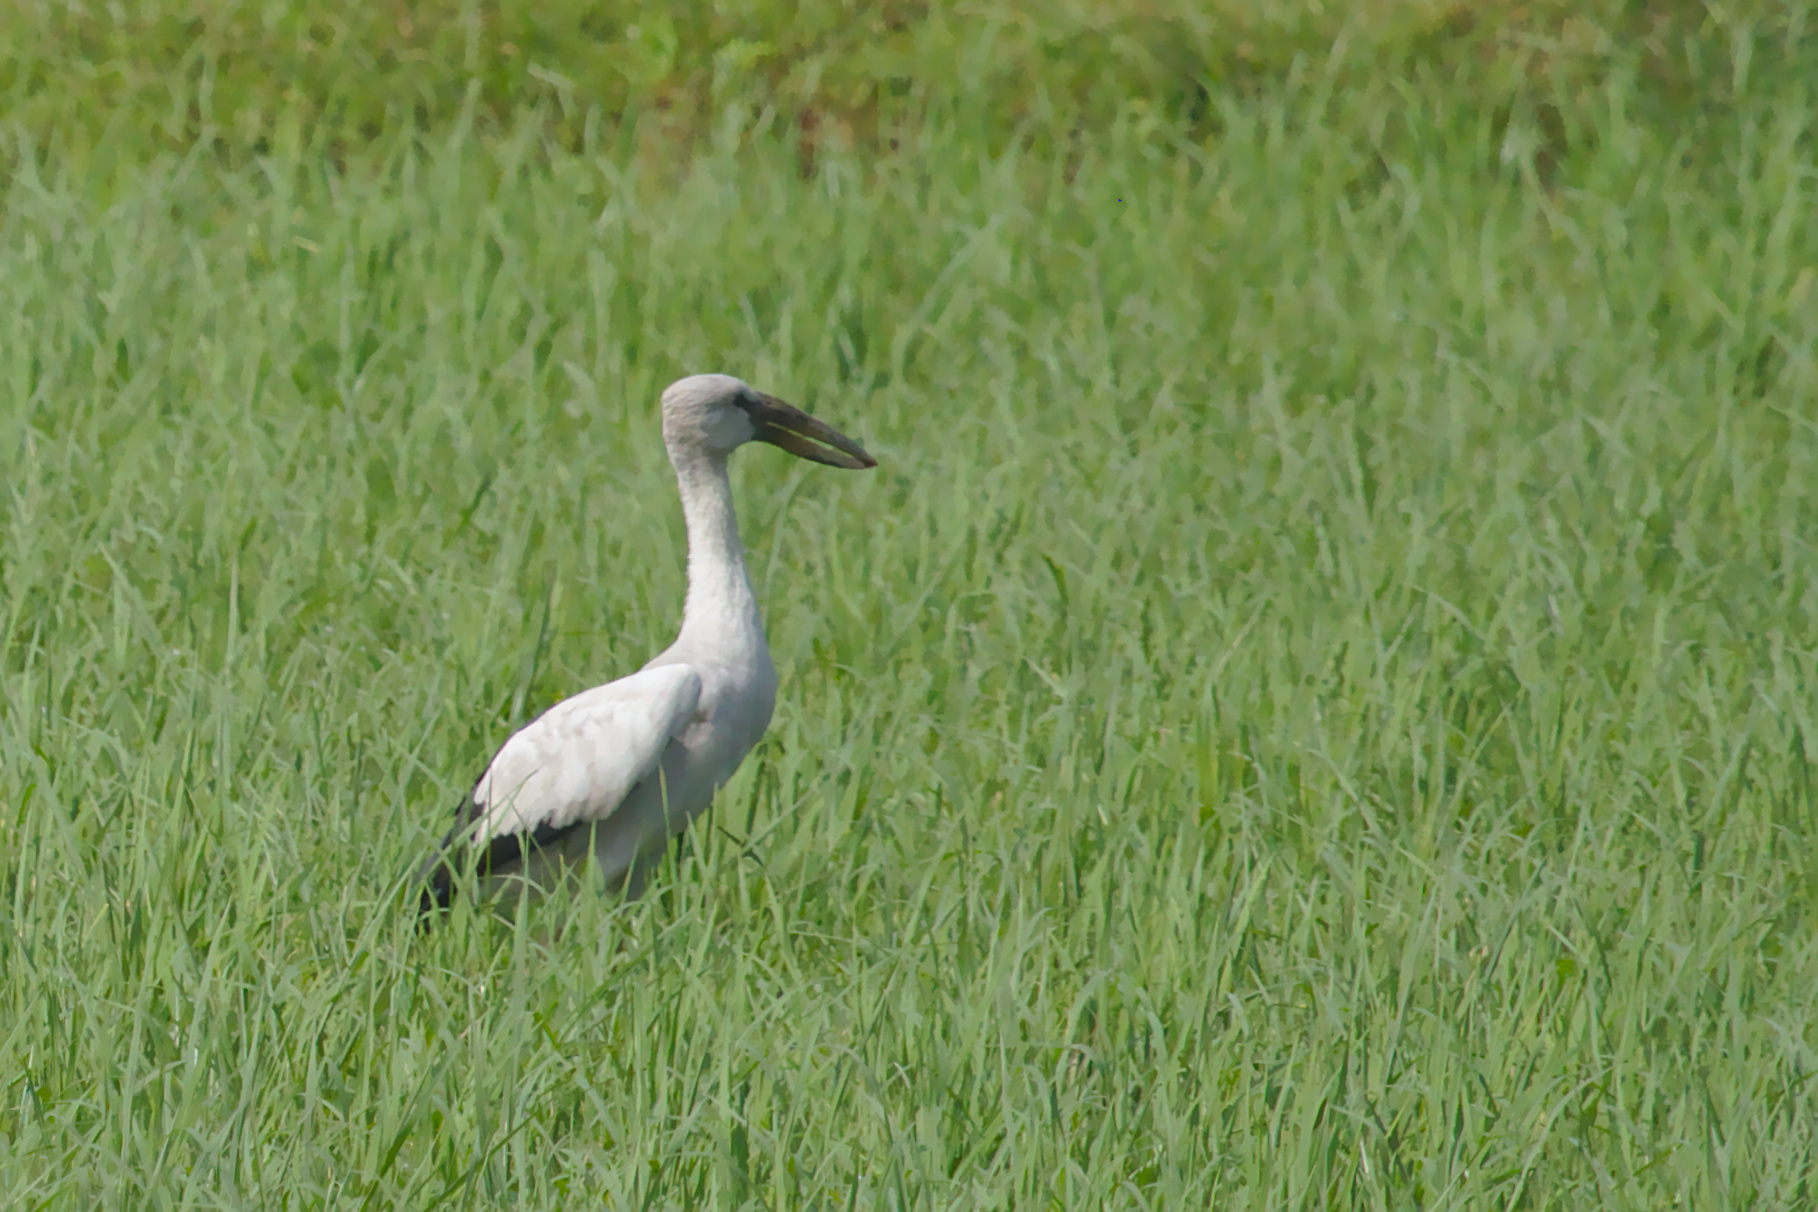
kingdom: Animalia
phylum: Chordata
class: Aves
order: Ciconiiformes
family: Ciconiidae
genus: Anastomus
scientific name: Anastomus oscitans
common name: Asian openbill
